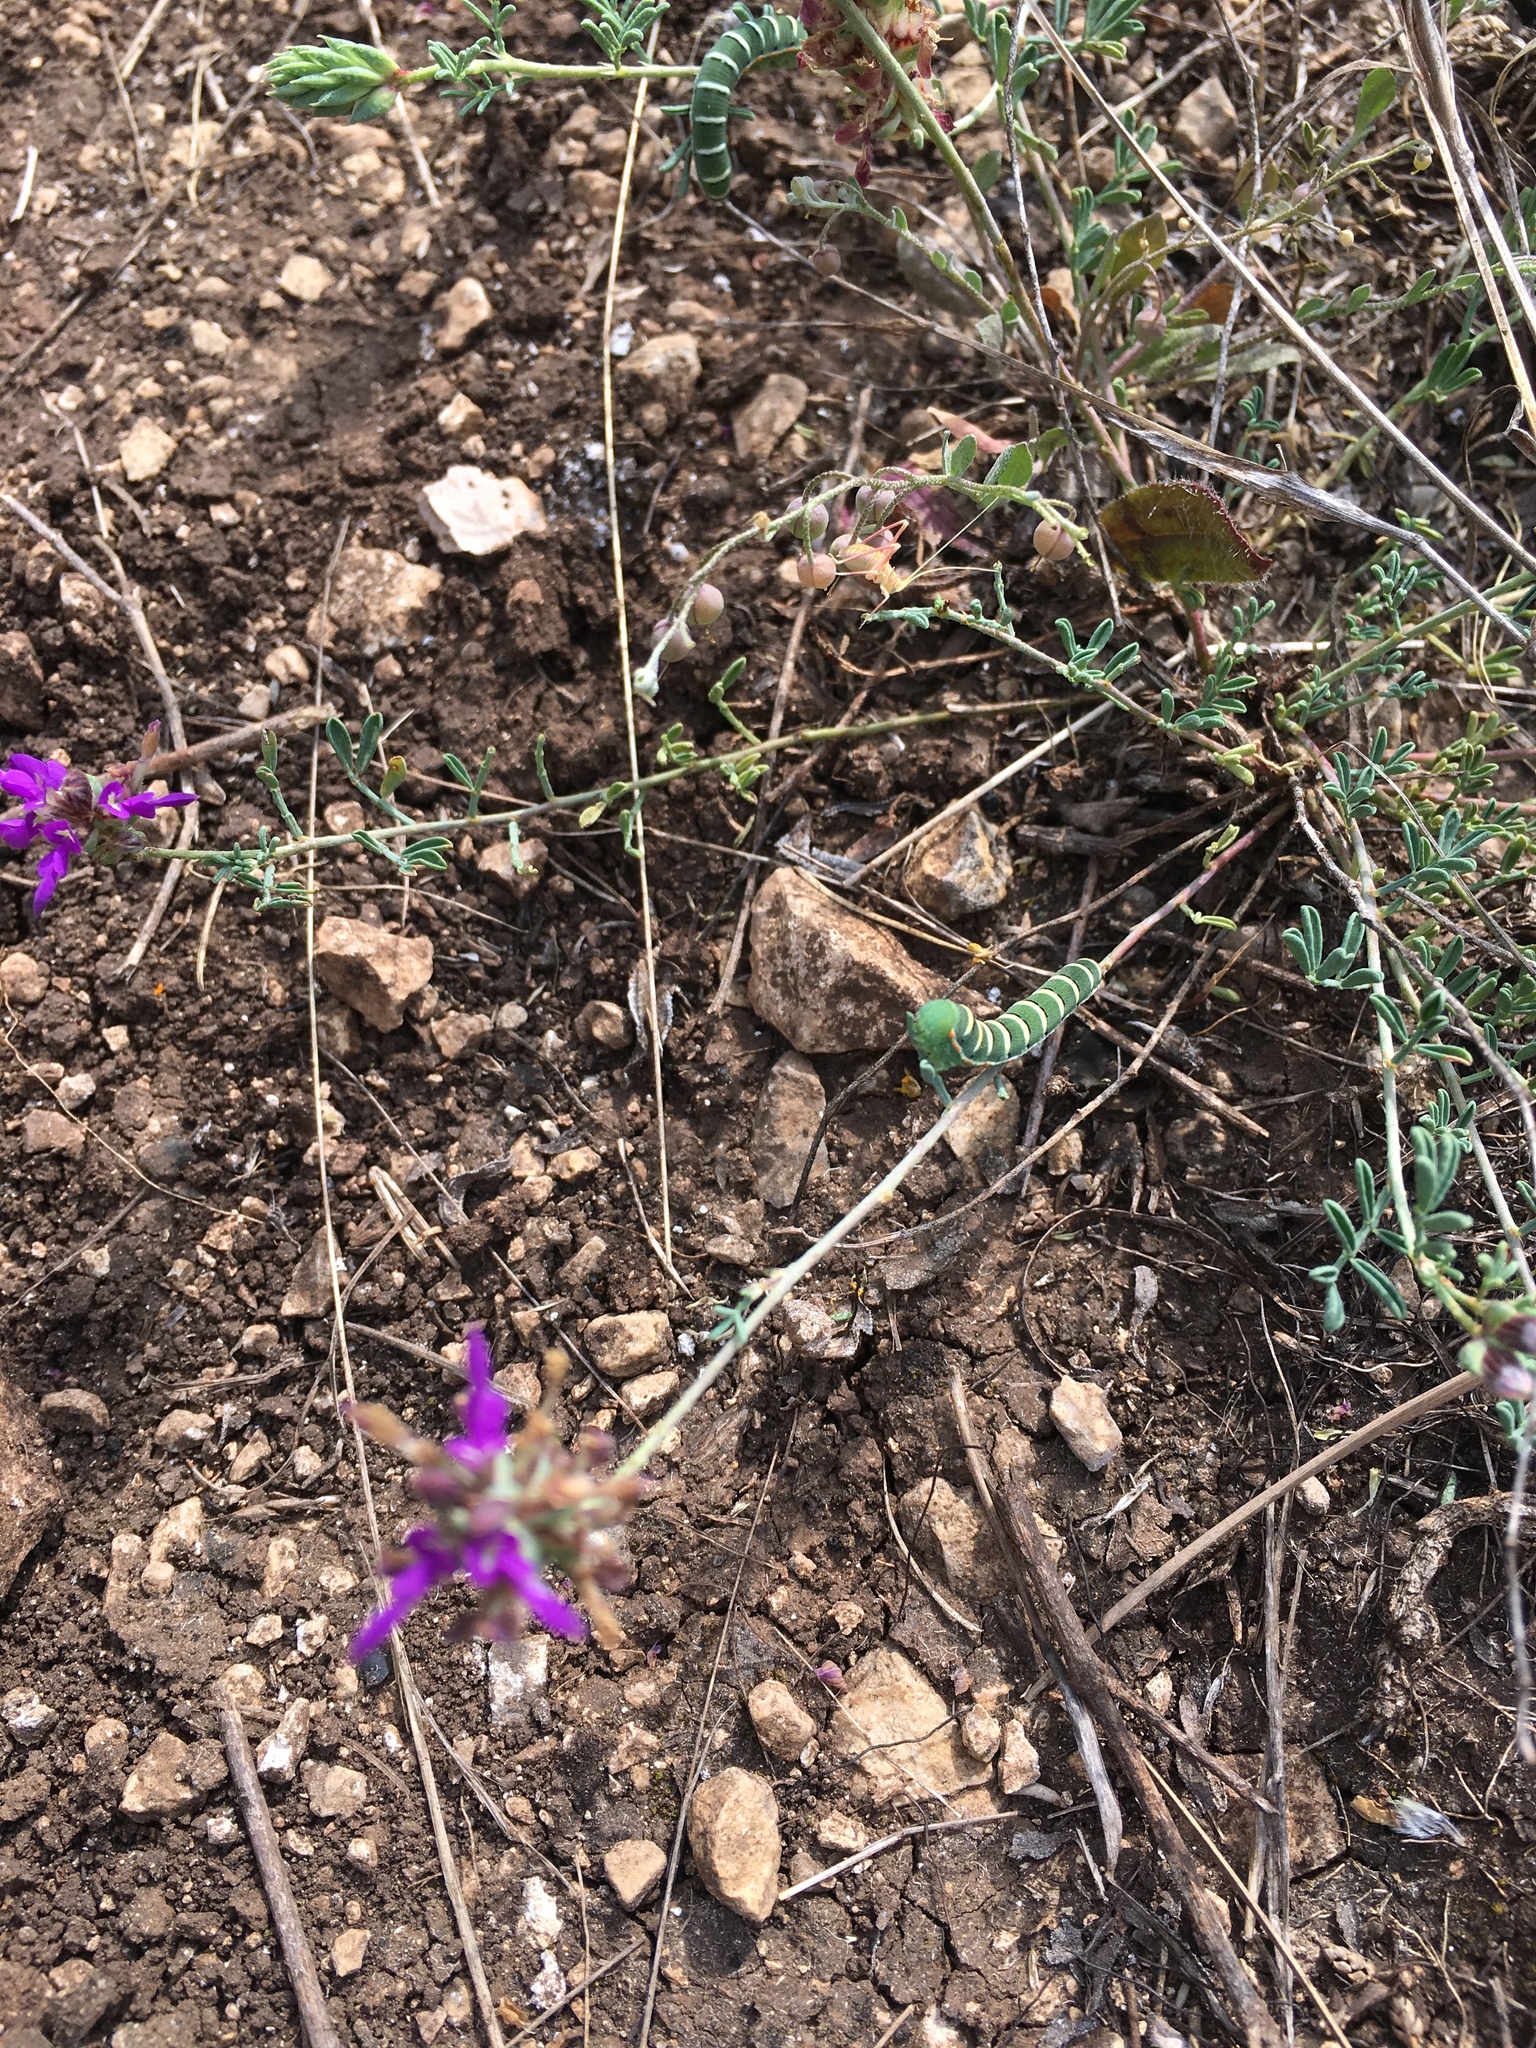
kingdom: Animalia
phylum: Arthropoda
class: Insecta
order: Lepidoptera
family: Pieridae
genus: Zerene
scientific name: Zerene cesonia
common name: Southern dogface
